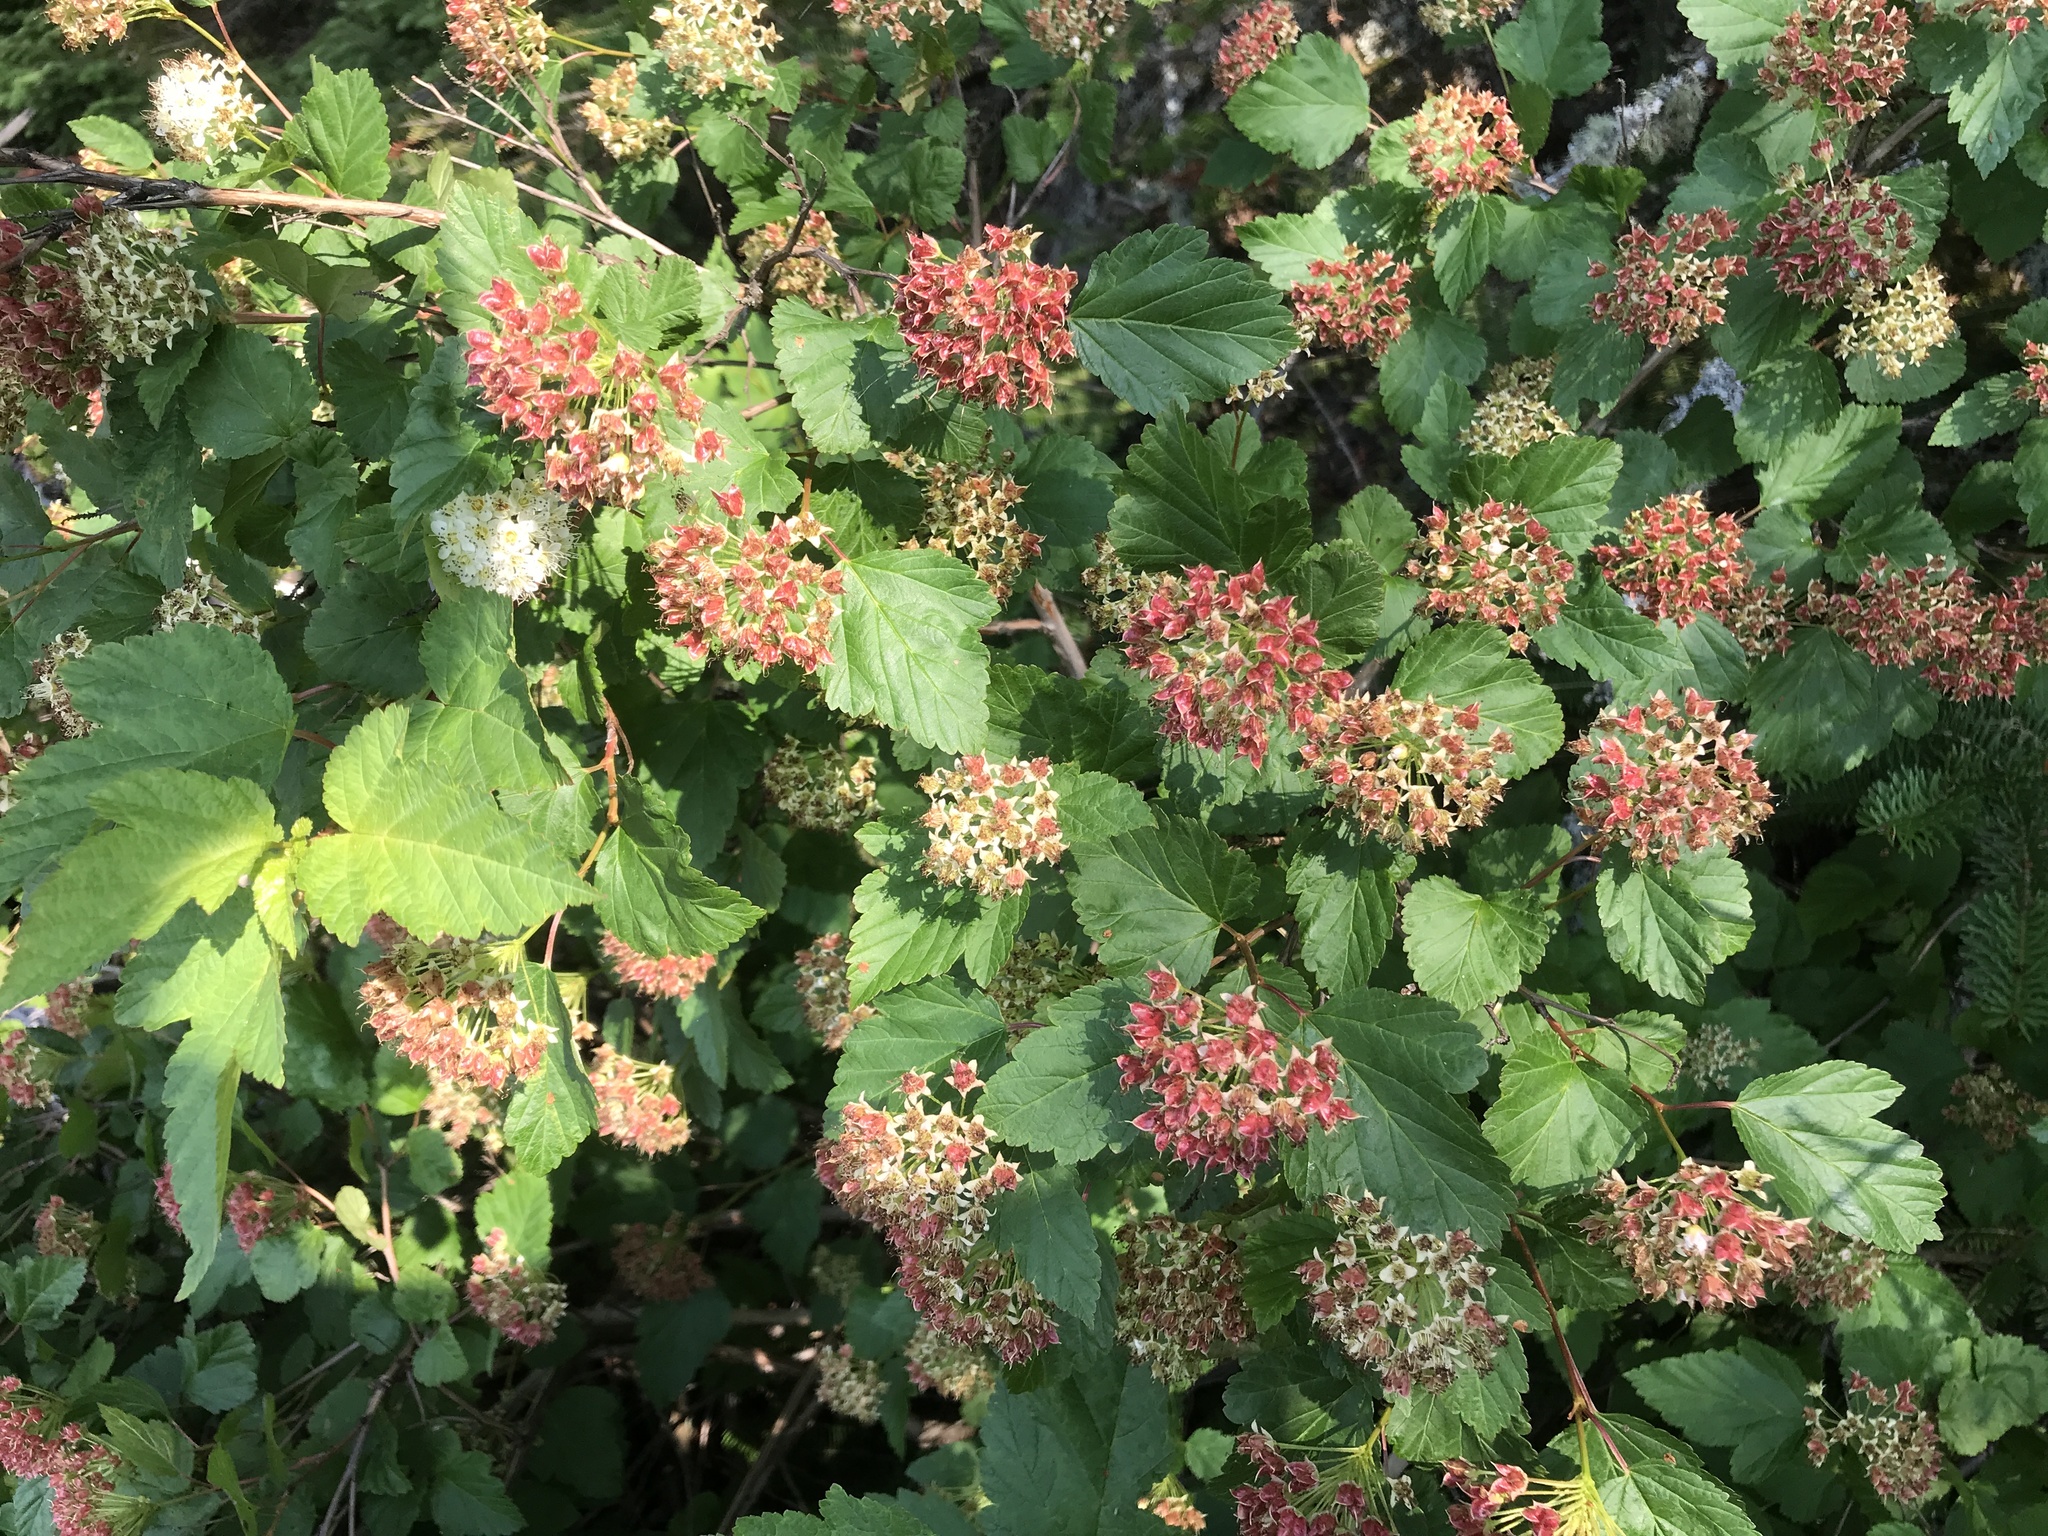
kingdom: Plantae
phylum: Tracheophyta
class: Magnoliopsida
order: Rosales
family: Rosaceae
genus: Physocarpus
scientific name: Physocarpus opulifolius
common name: Ninebark
